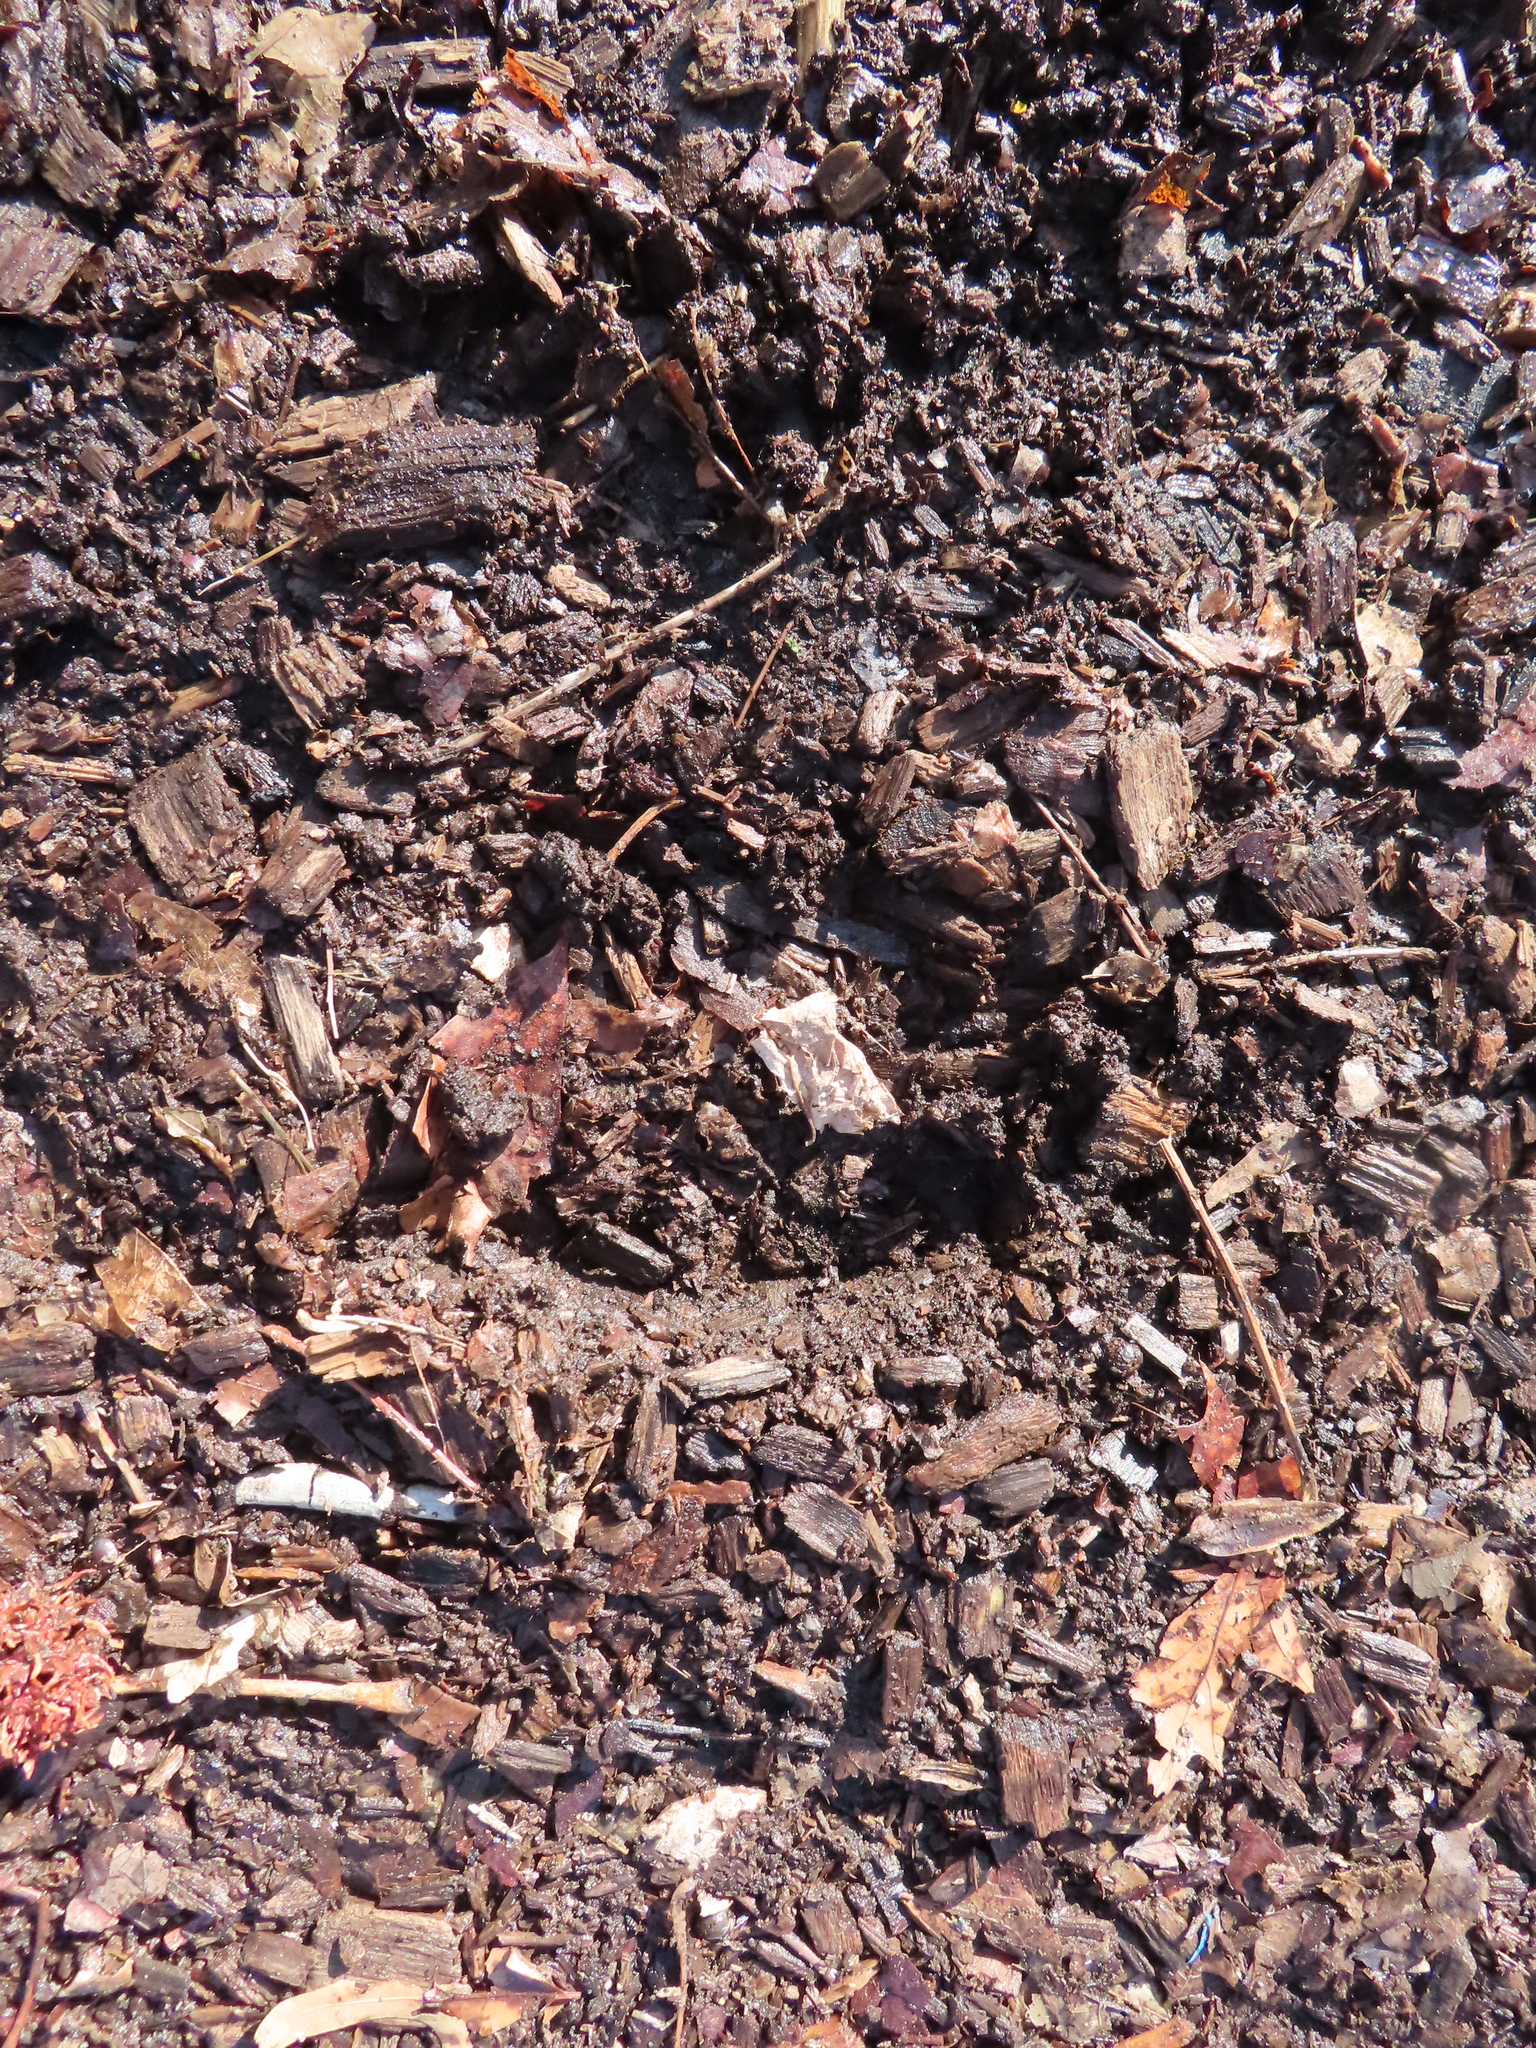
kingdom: Animalia
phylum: Chordata
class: Mammalia
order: Artiodactyla
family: Cervidae
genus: Odocoileus
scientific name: Odocoileus virginianus
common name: White-tailed deer
